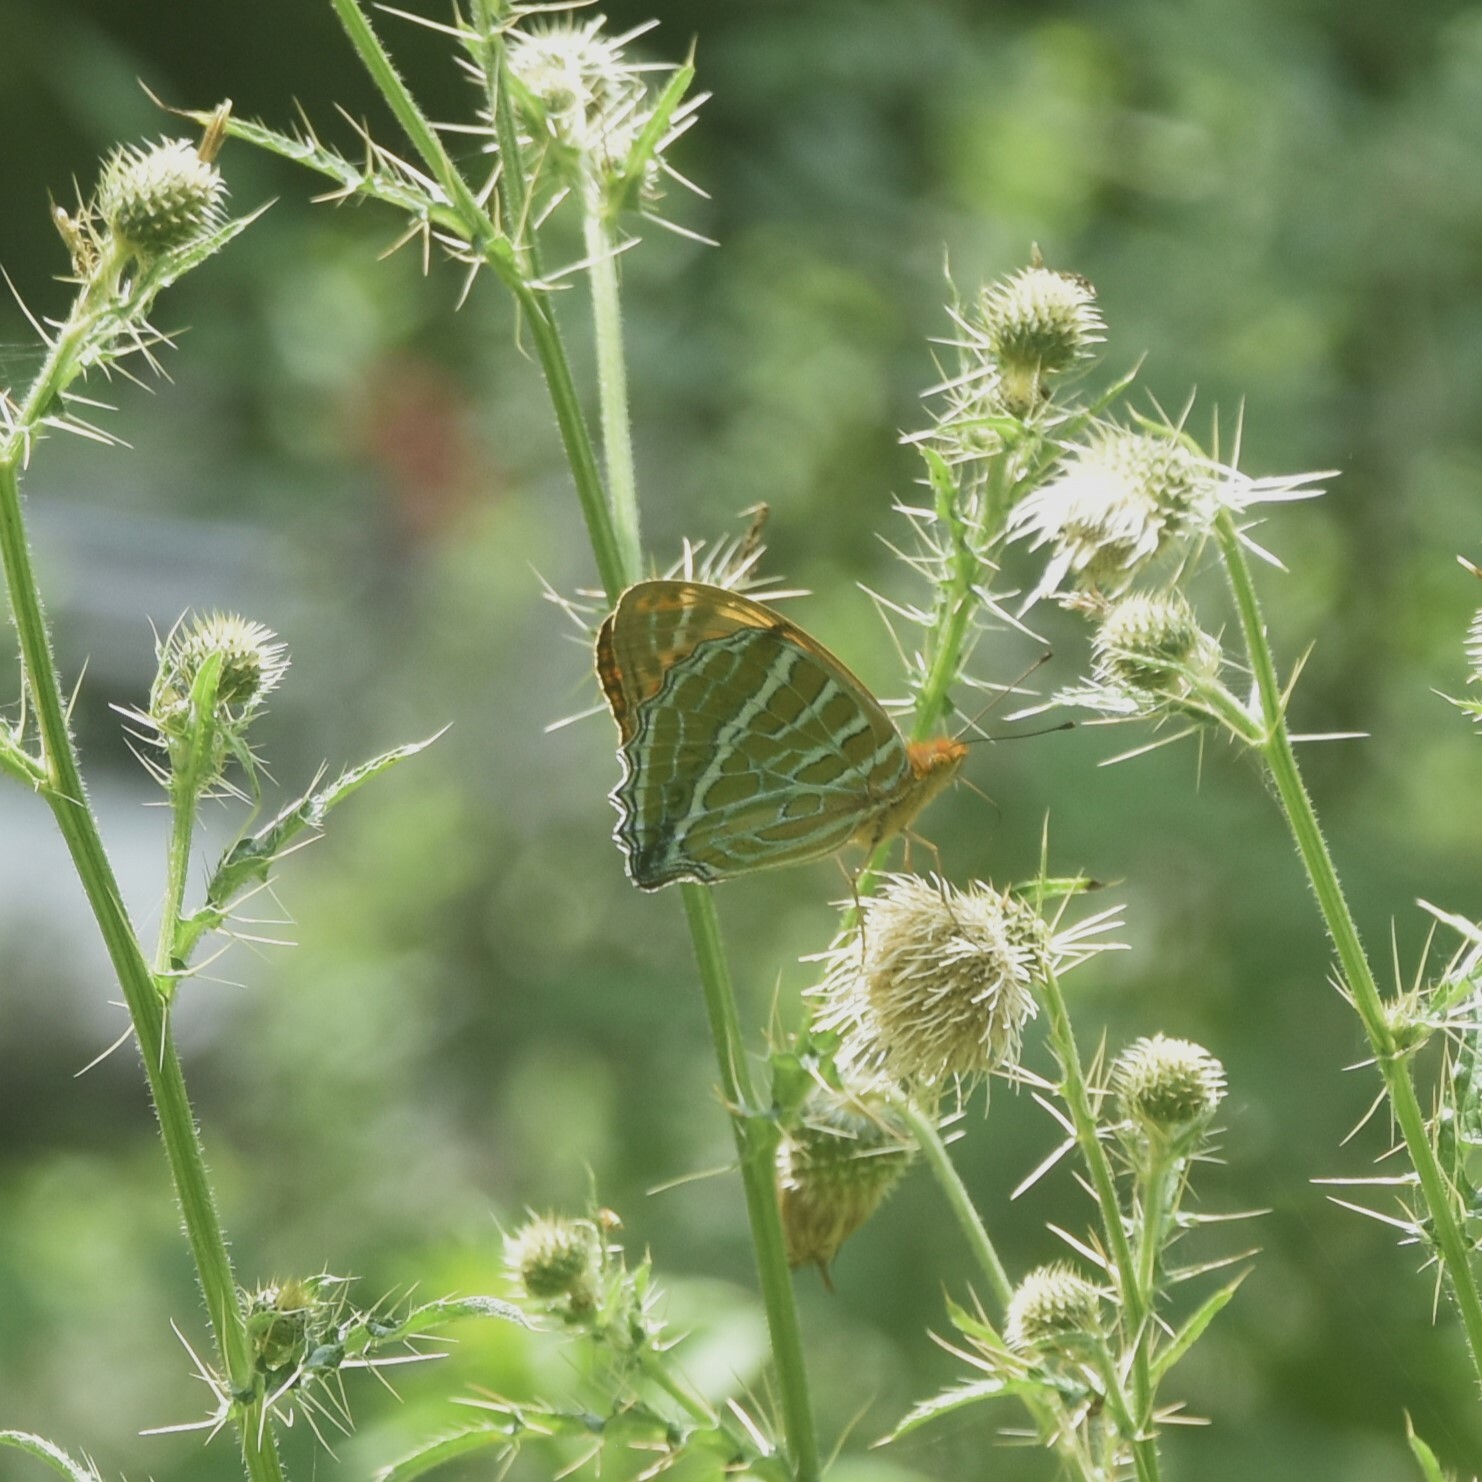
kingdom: Animalia
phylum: Arthropoda
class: Insecta
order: Lepidoptera
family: Nymphalidae
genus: Childrena
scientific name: Childrena childreni
